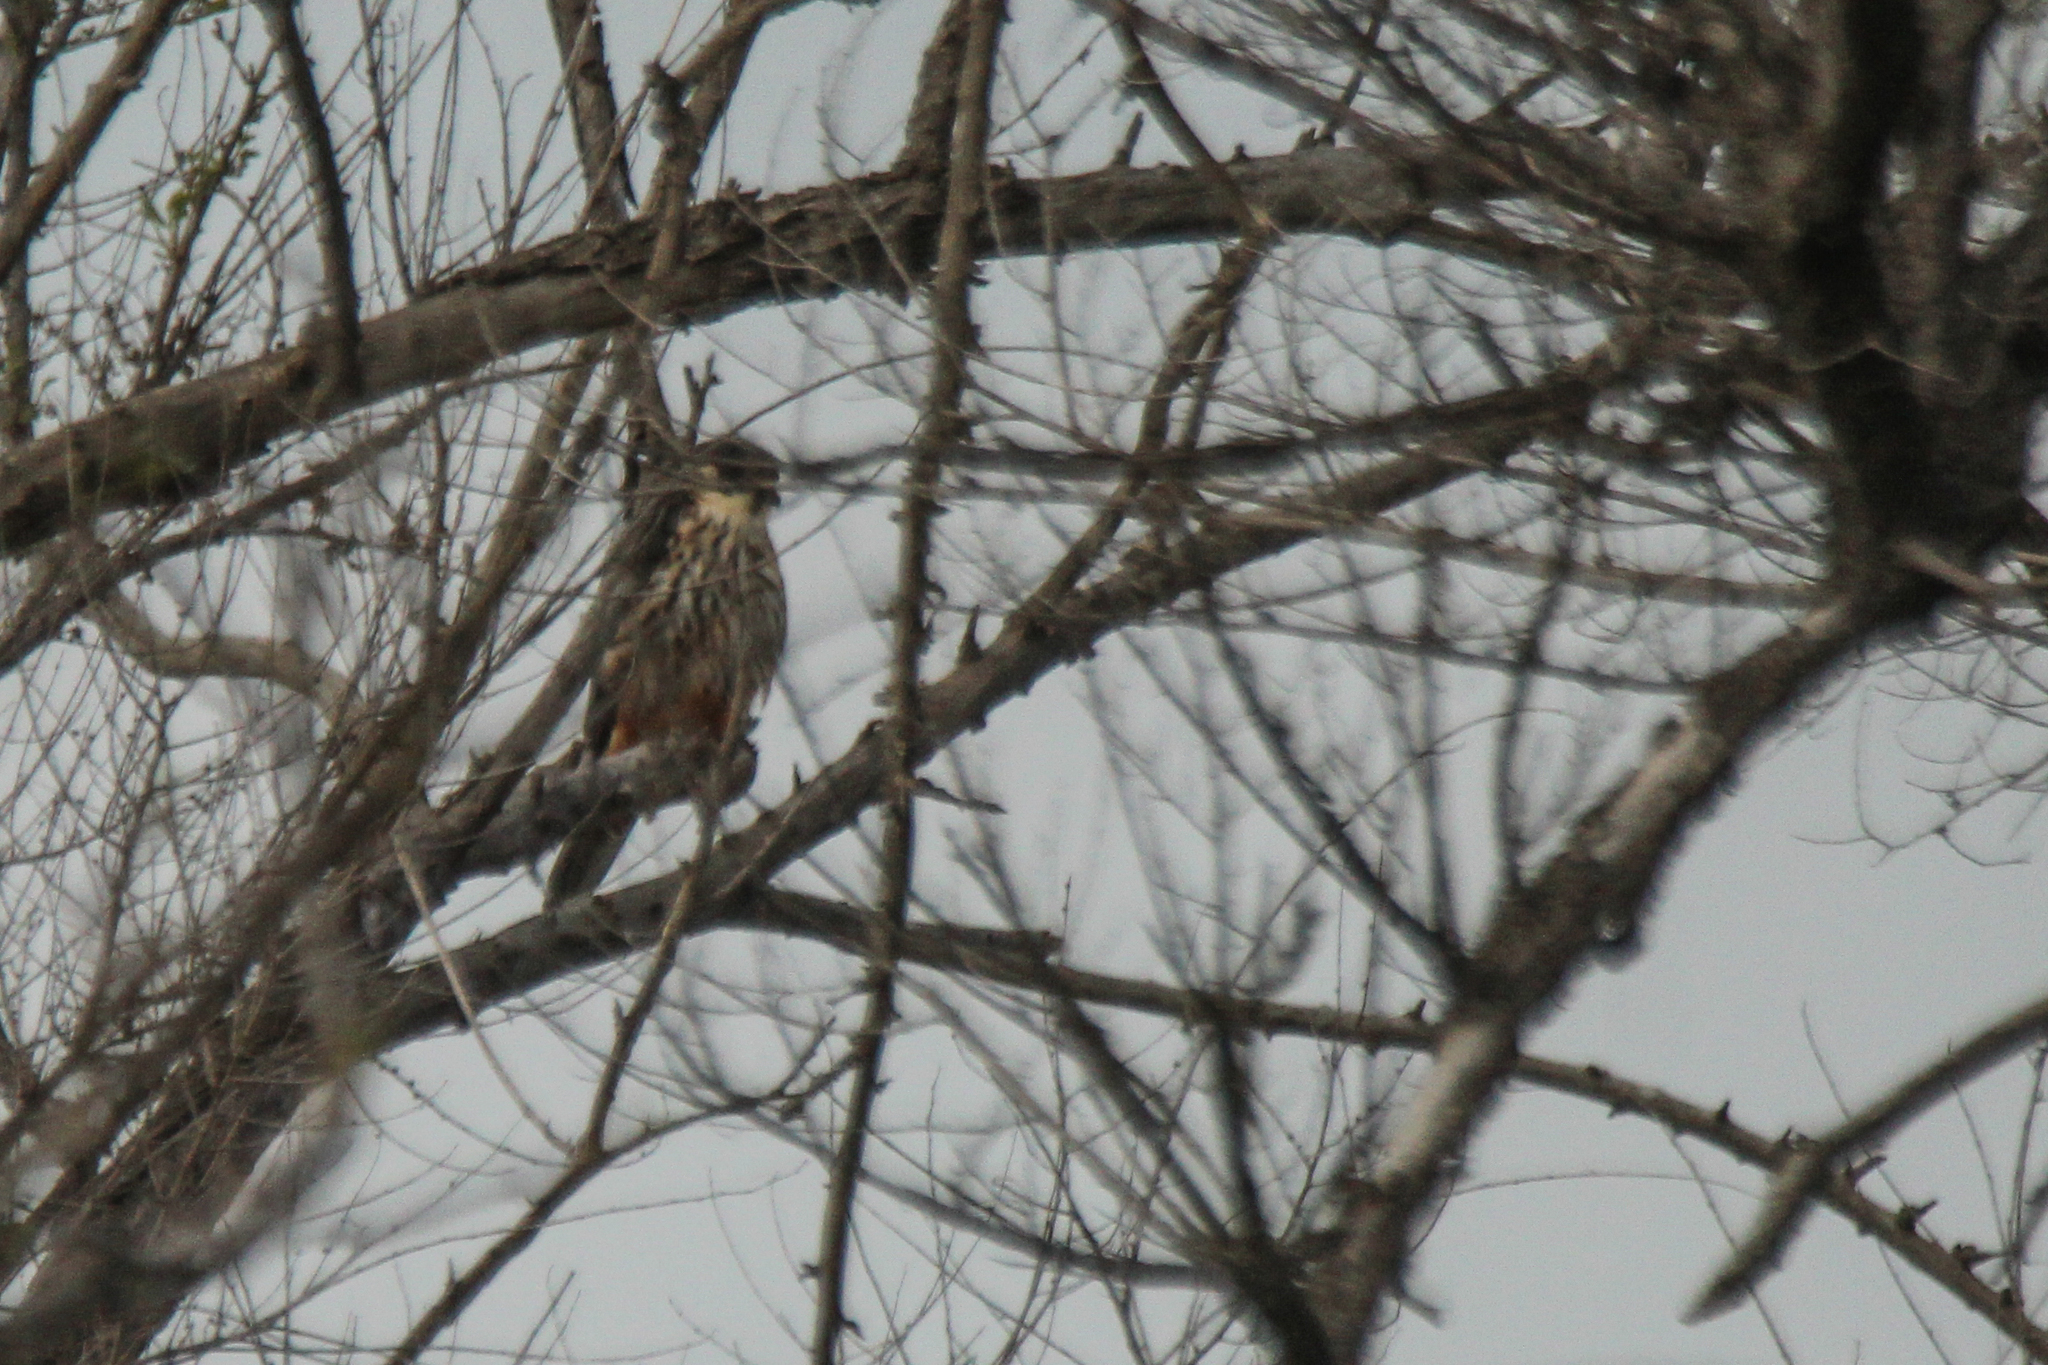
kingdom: Animalia
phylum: Chordata
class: Aves
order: Falconiformes
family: Falconidae
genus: Falco
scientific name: Falco subbuteo
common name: Eurasian hobby
